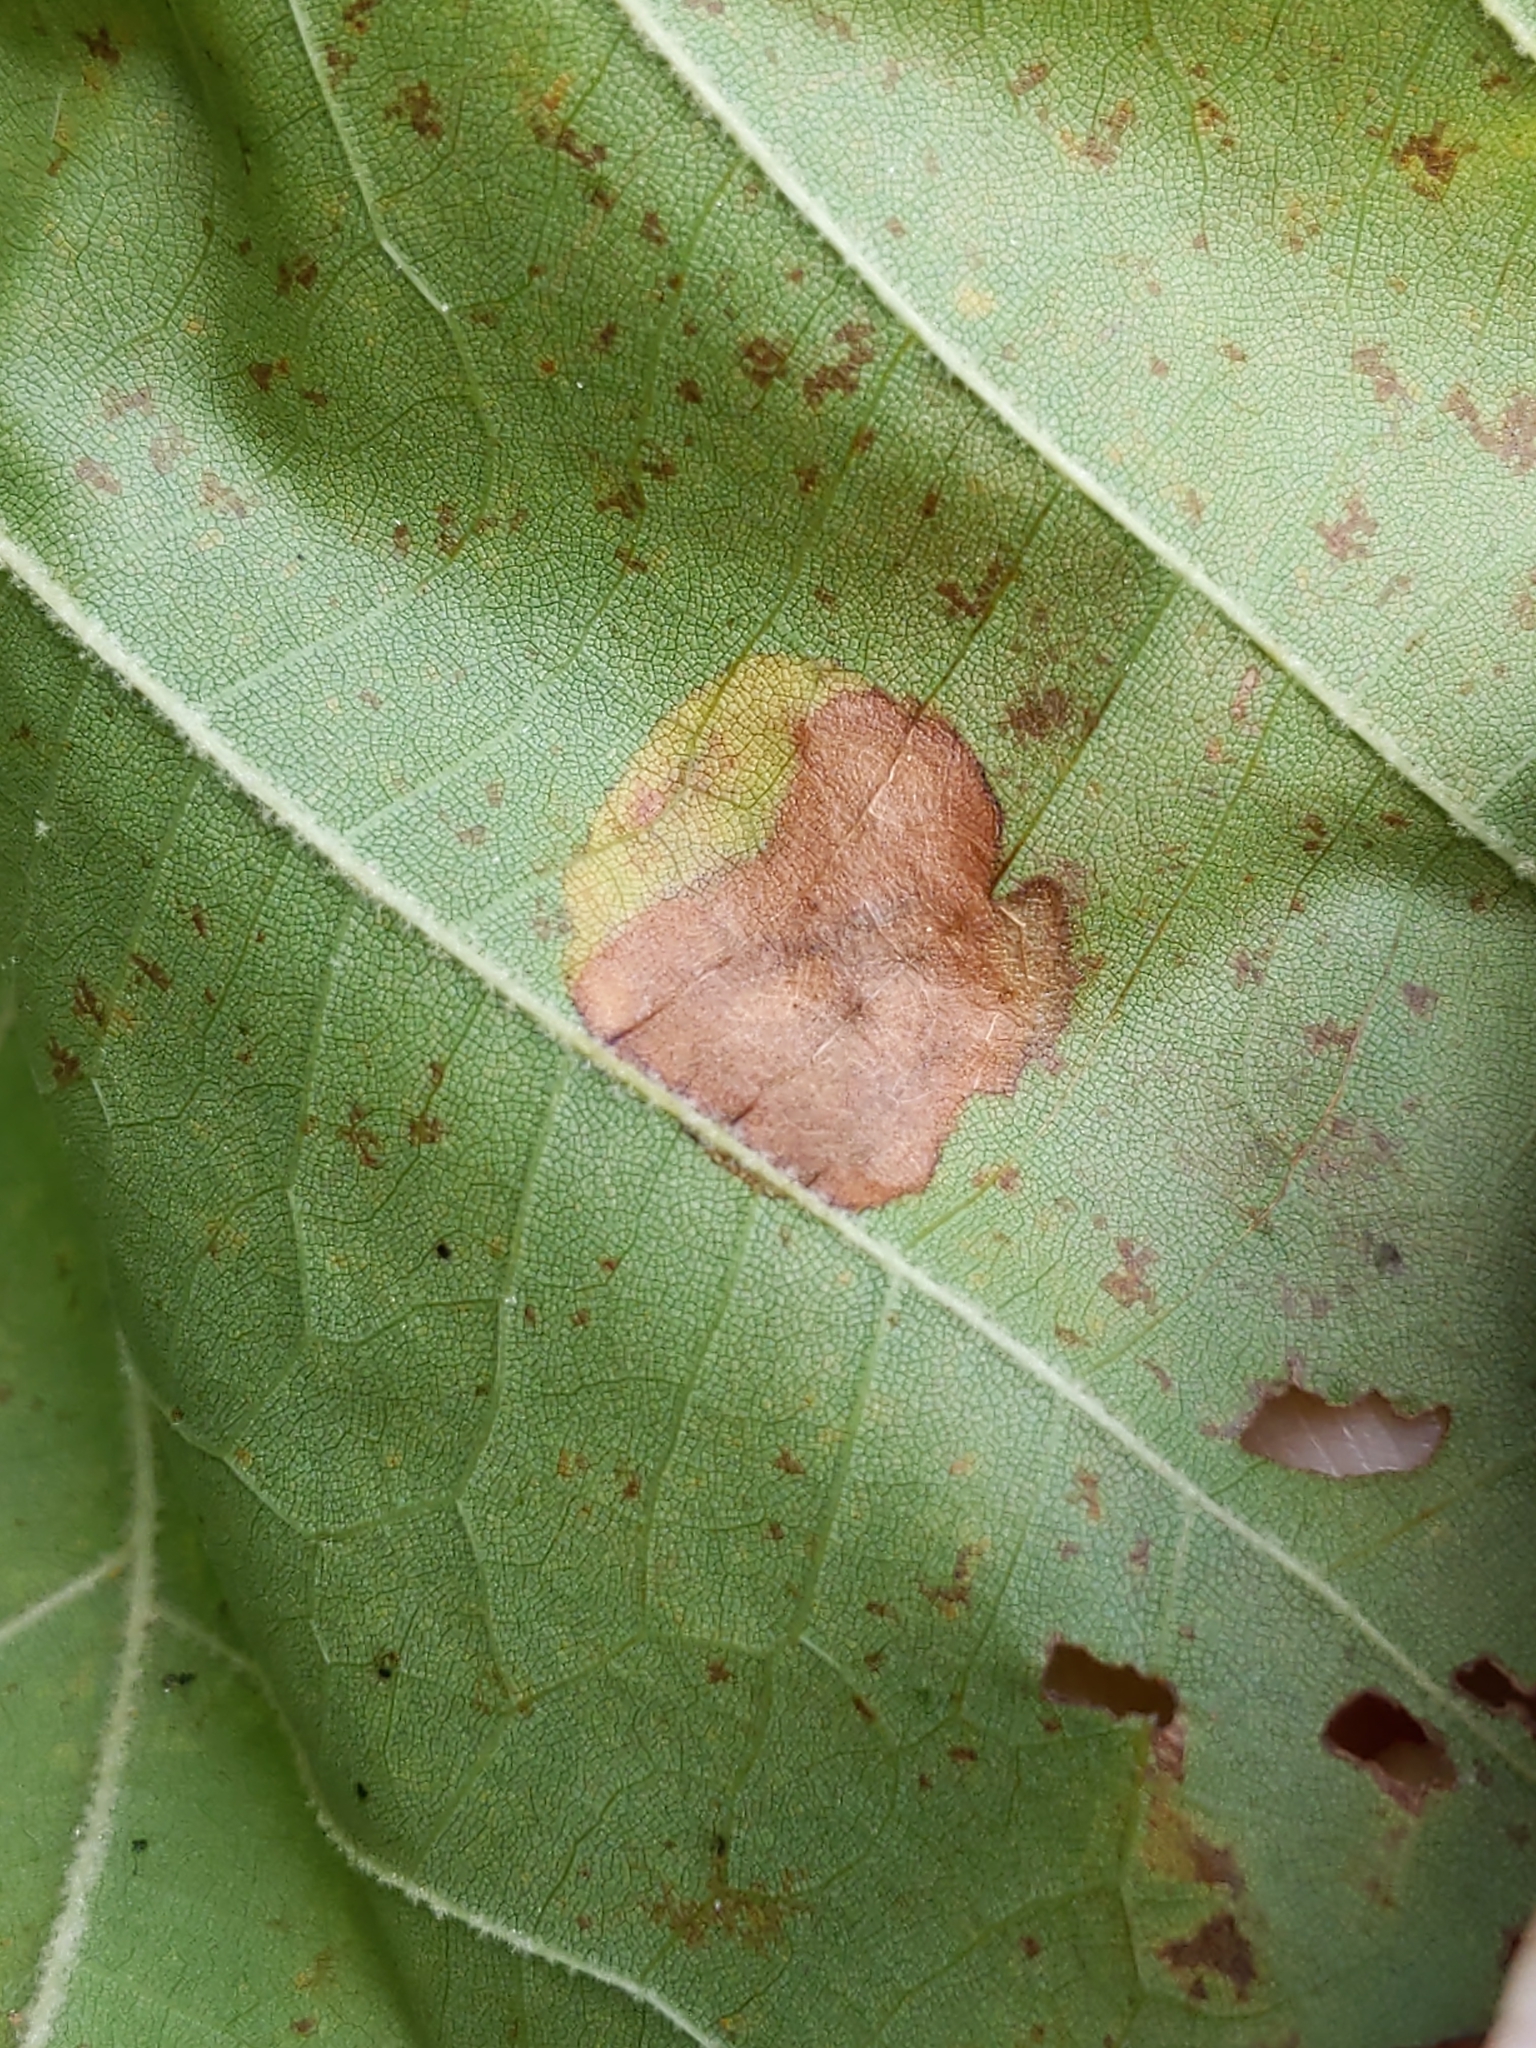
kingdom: Animalia
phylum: Arthropoda
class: Insecta
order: Lepidoptera
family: Nepticulidae
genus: Ectoedemia
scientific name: Ectoedemia platanella
